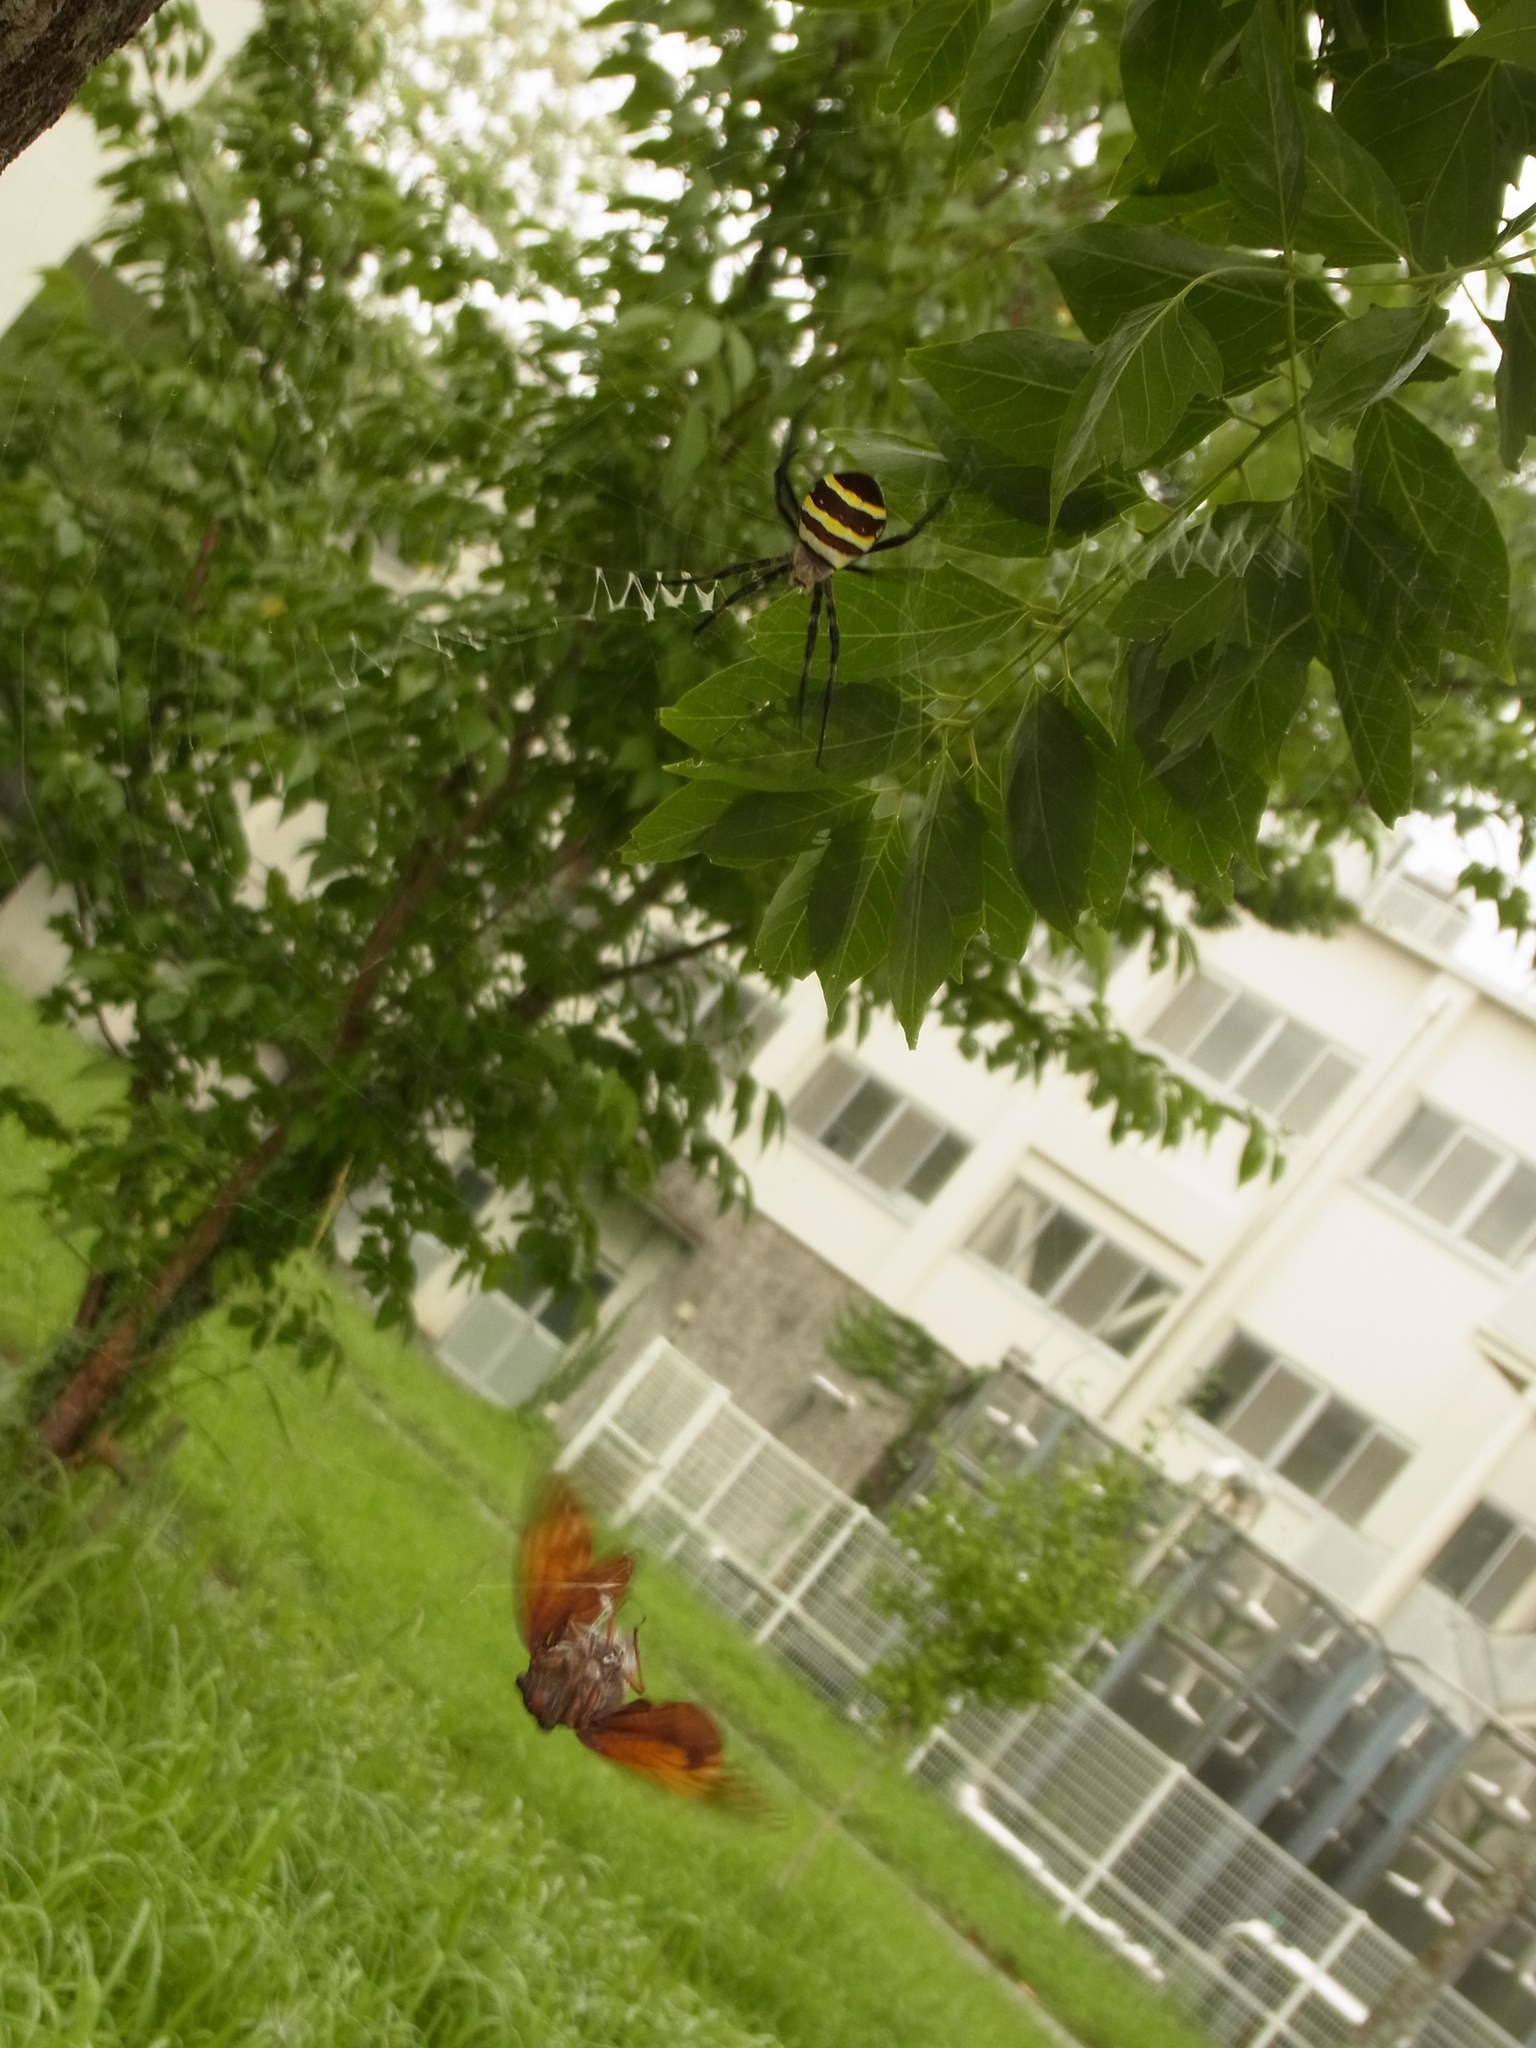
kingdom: Animalia
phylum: Arthropoda
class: Arachnida
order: Araneae
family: Araneidae
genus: Argiope
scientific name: Argiope amoena
